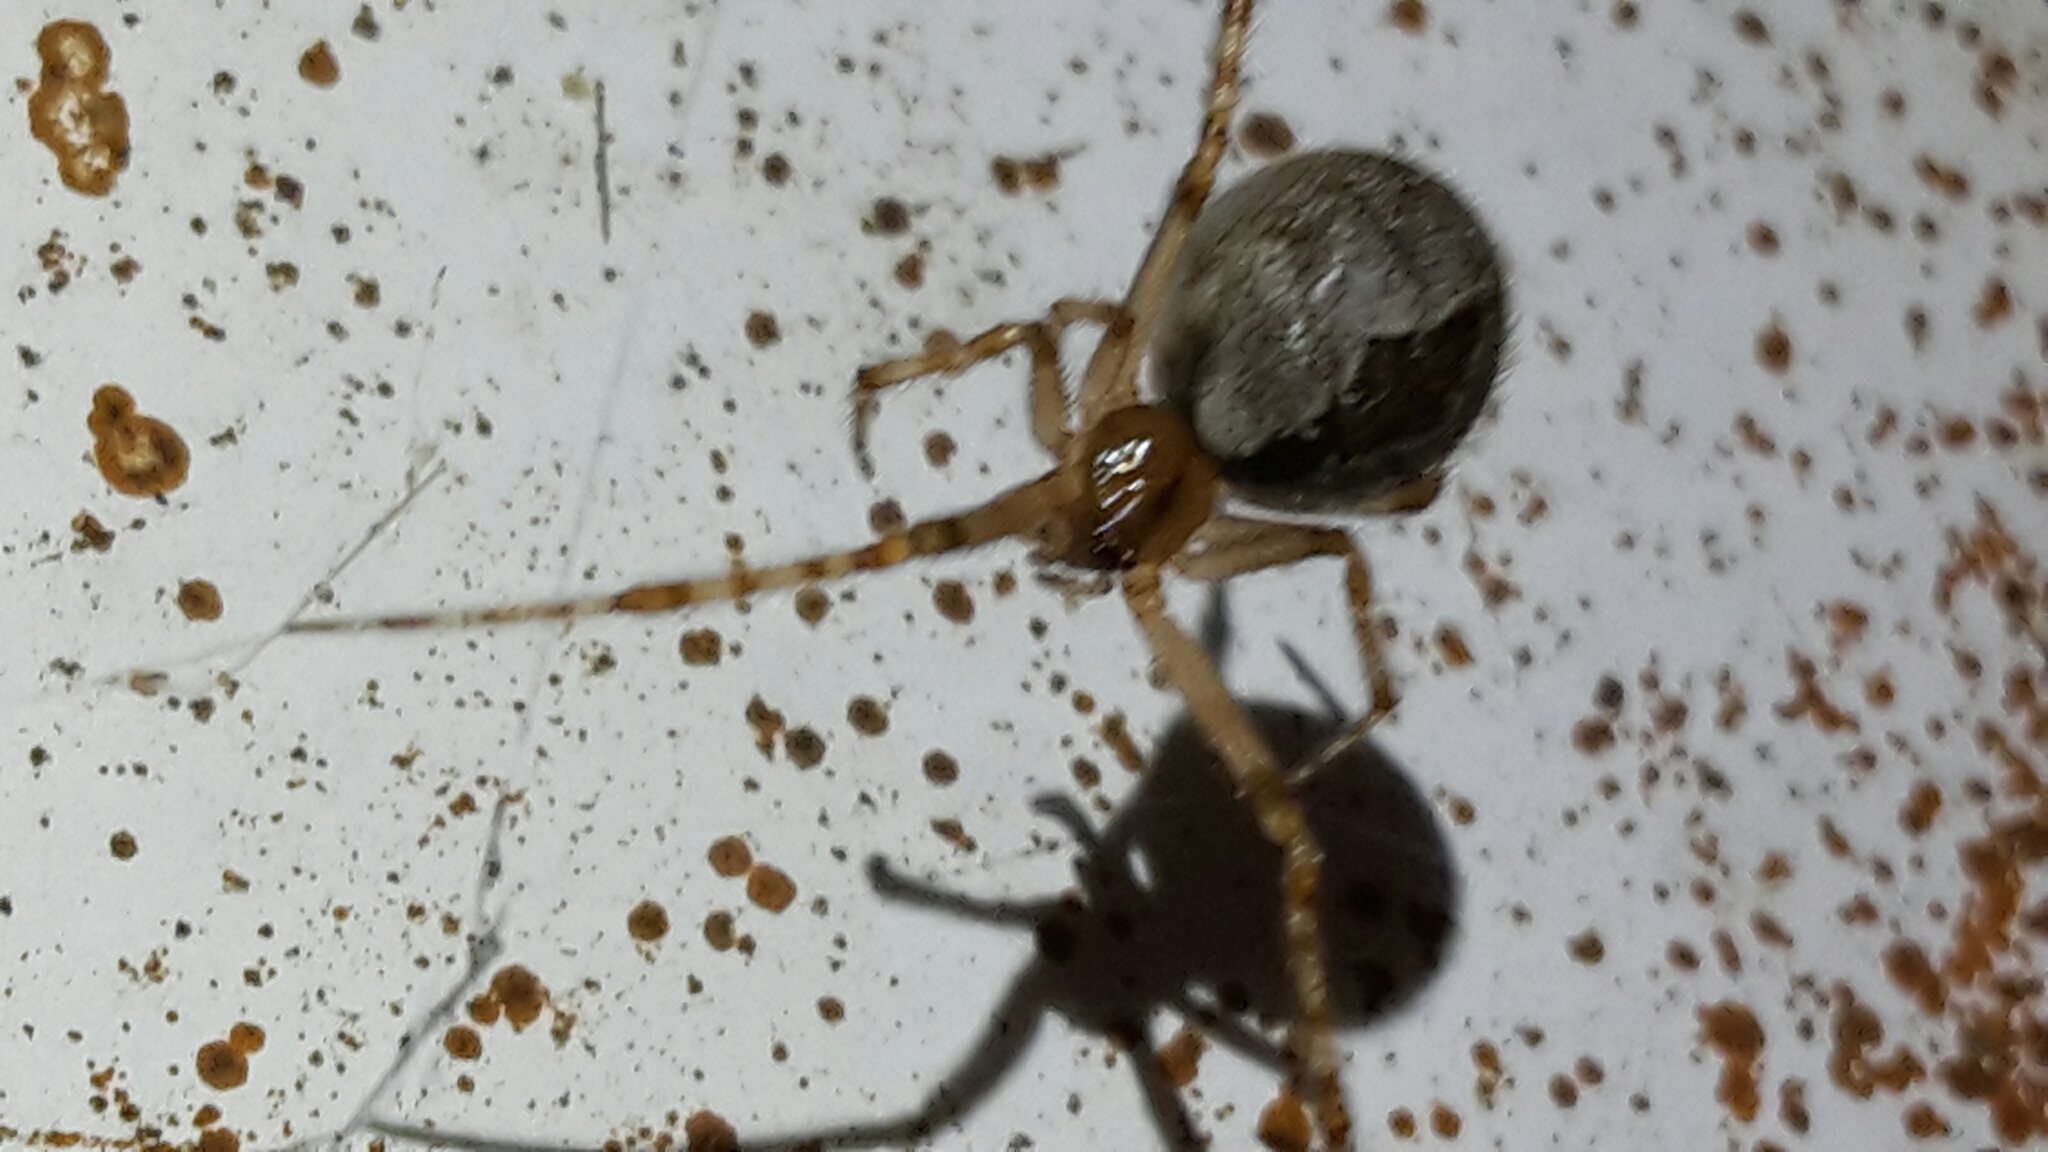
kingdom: Animalia
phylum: Arthropoda
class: Arachnida
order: Araneae
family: Theridiidae
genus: Cryptachaea
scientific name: Cryptachaea veruculata
